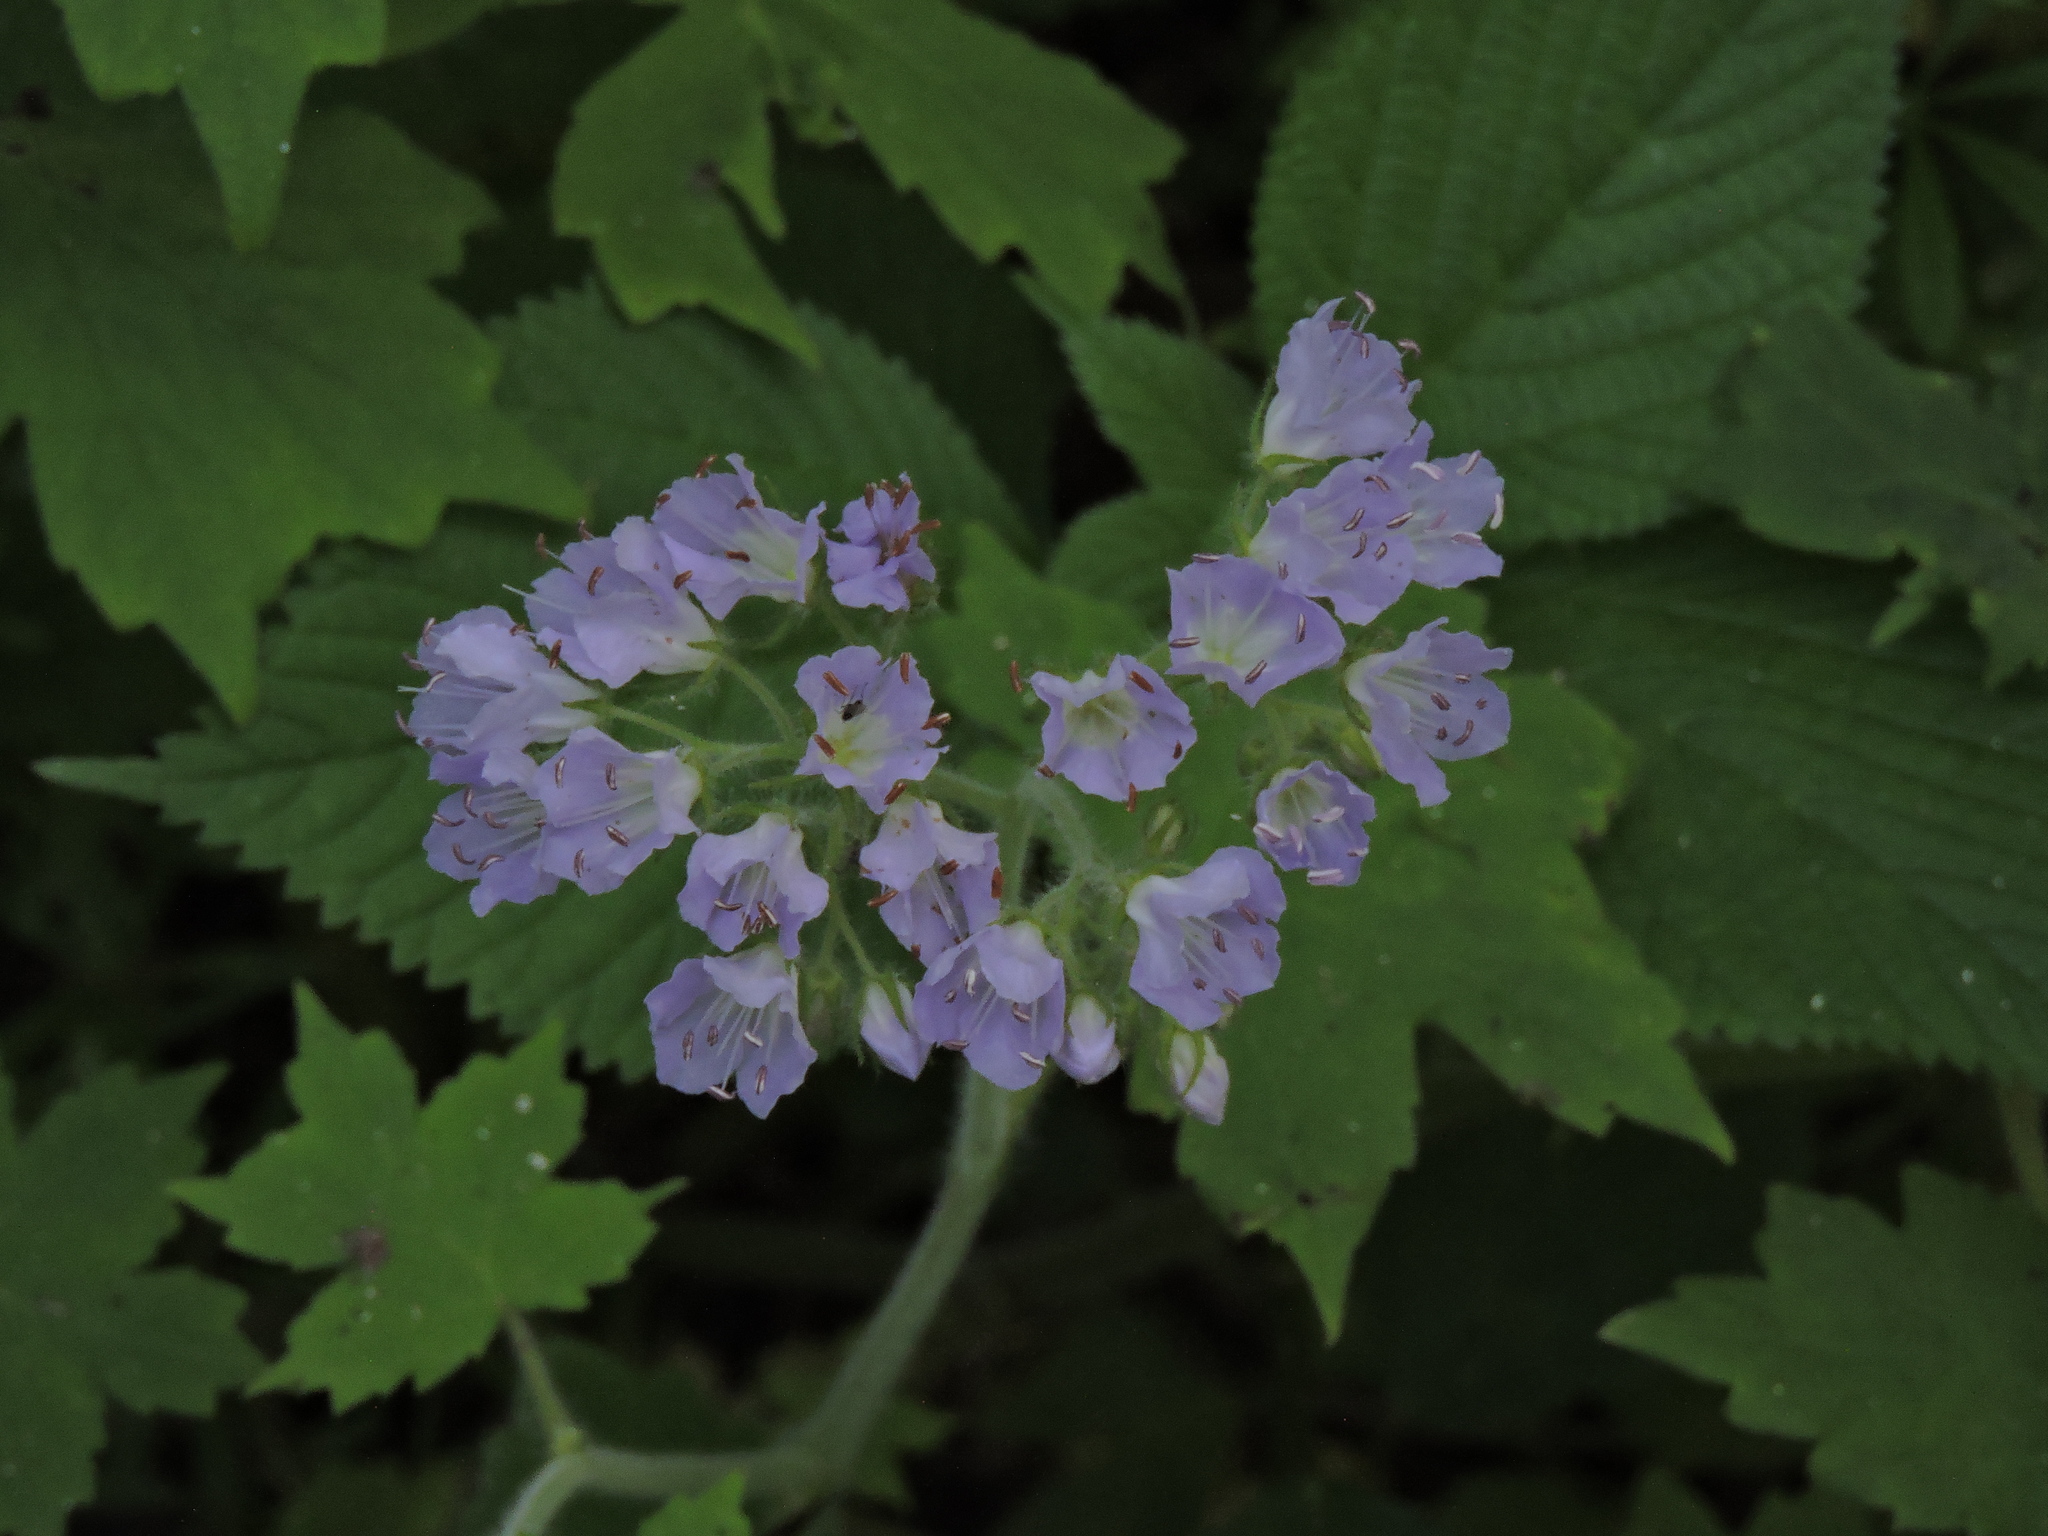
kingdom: Plantae
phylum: Tracheophyta
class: Magnoliopsida
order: Boraginales
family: Hydrophyllaceae
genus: Hydrophyllum
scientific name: Hydrophyllum appendiculatum
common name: Appendaged waterleaf
